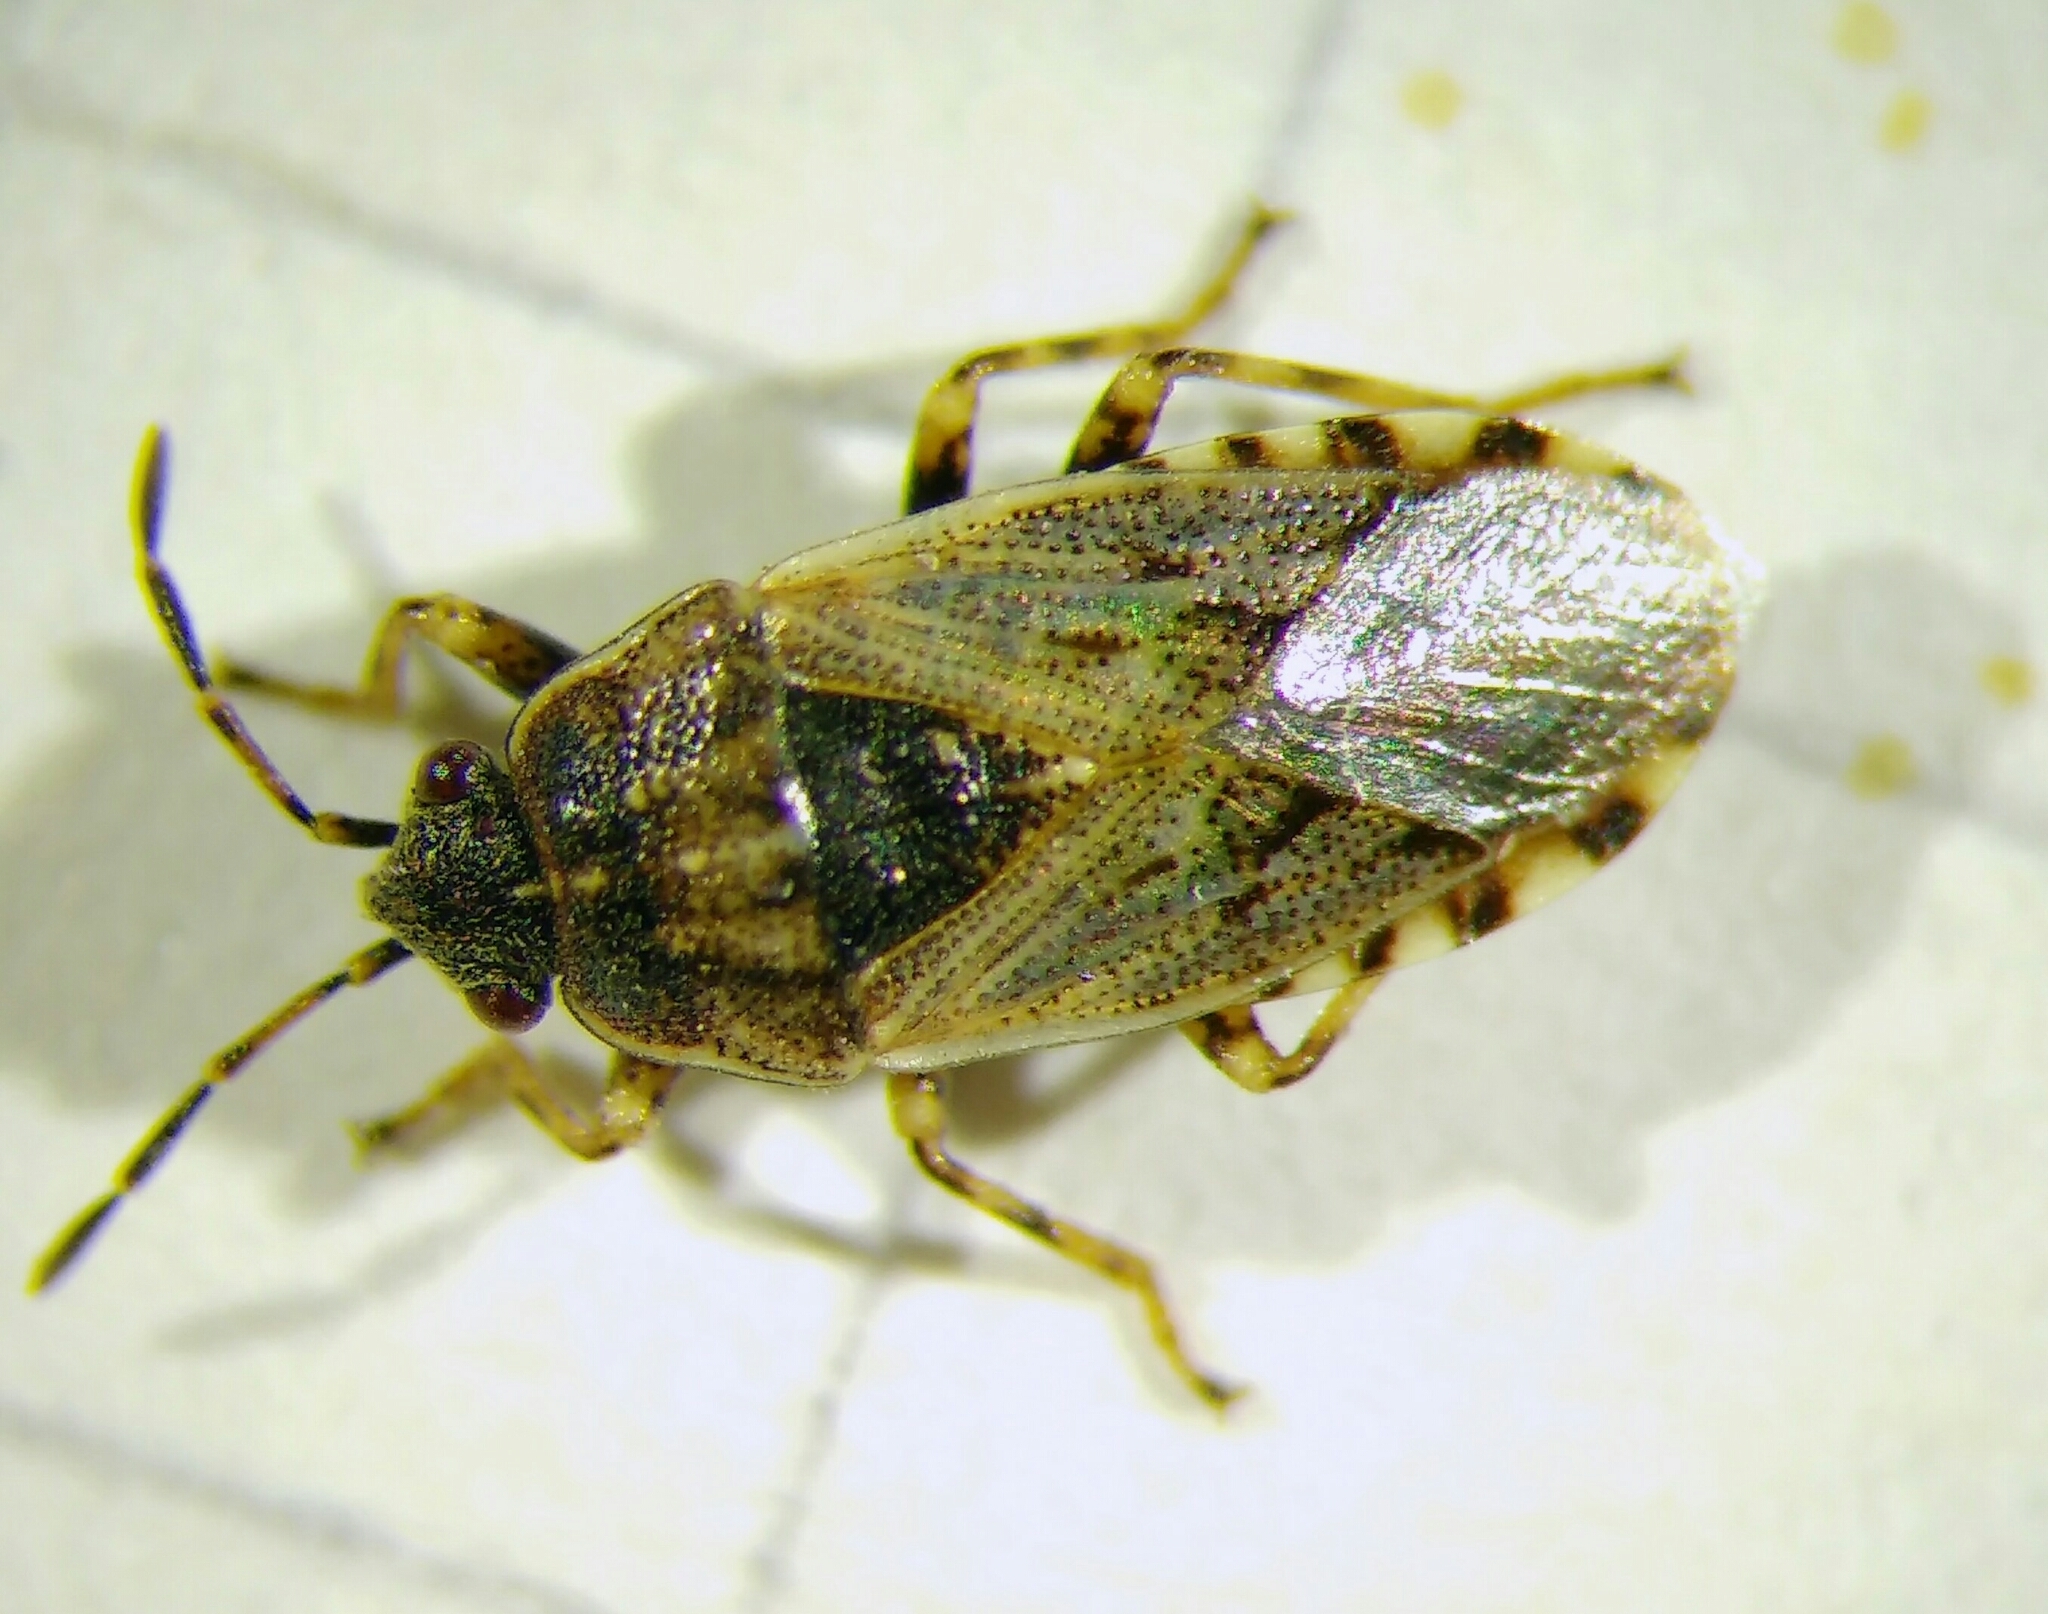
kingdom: Animalia
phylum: Arthropoda
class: Insecta
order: Hemiptera
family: Heterogastridae
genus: Platyplax
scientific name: Platyplax salviae
